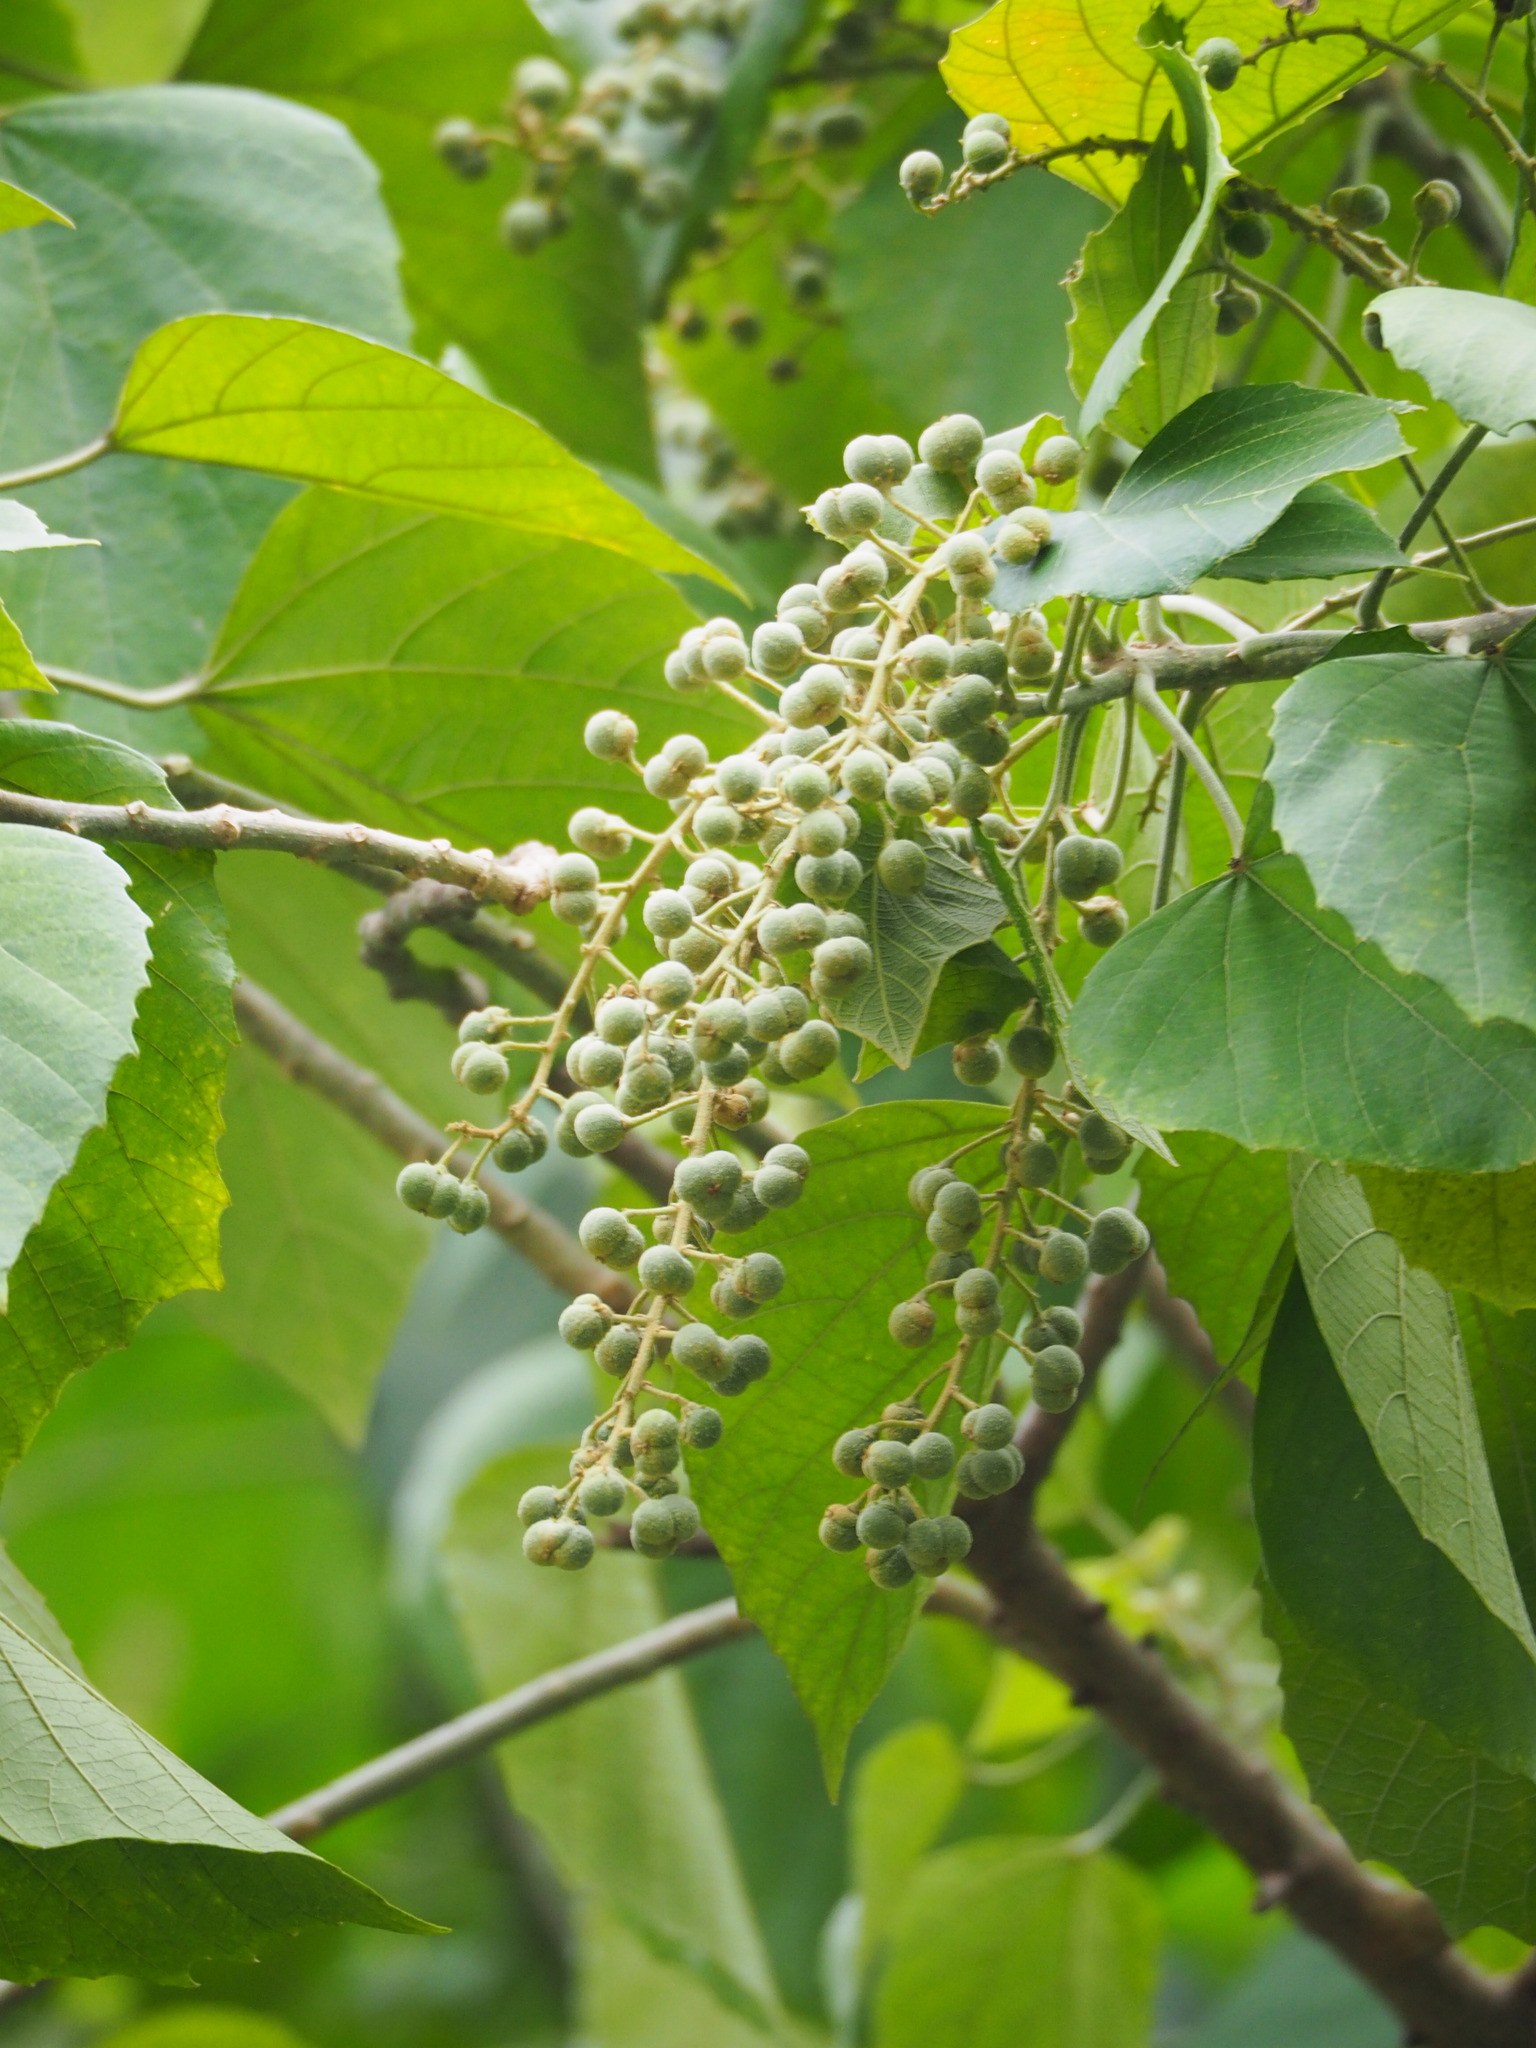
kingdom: Plantae
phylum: Tracheophyta
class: Magnoliopsida
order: Malpighiales
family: Euphorbiaceae
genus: Melanolepis
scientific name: Melanolepis multiglandulosa
